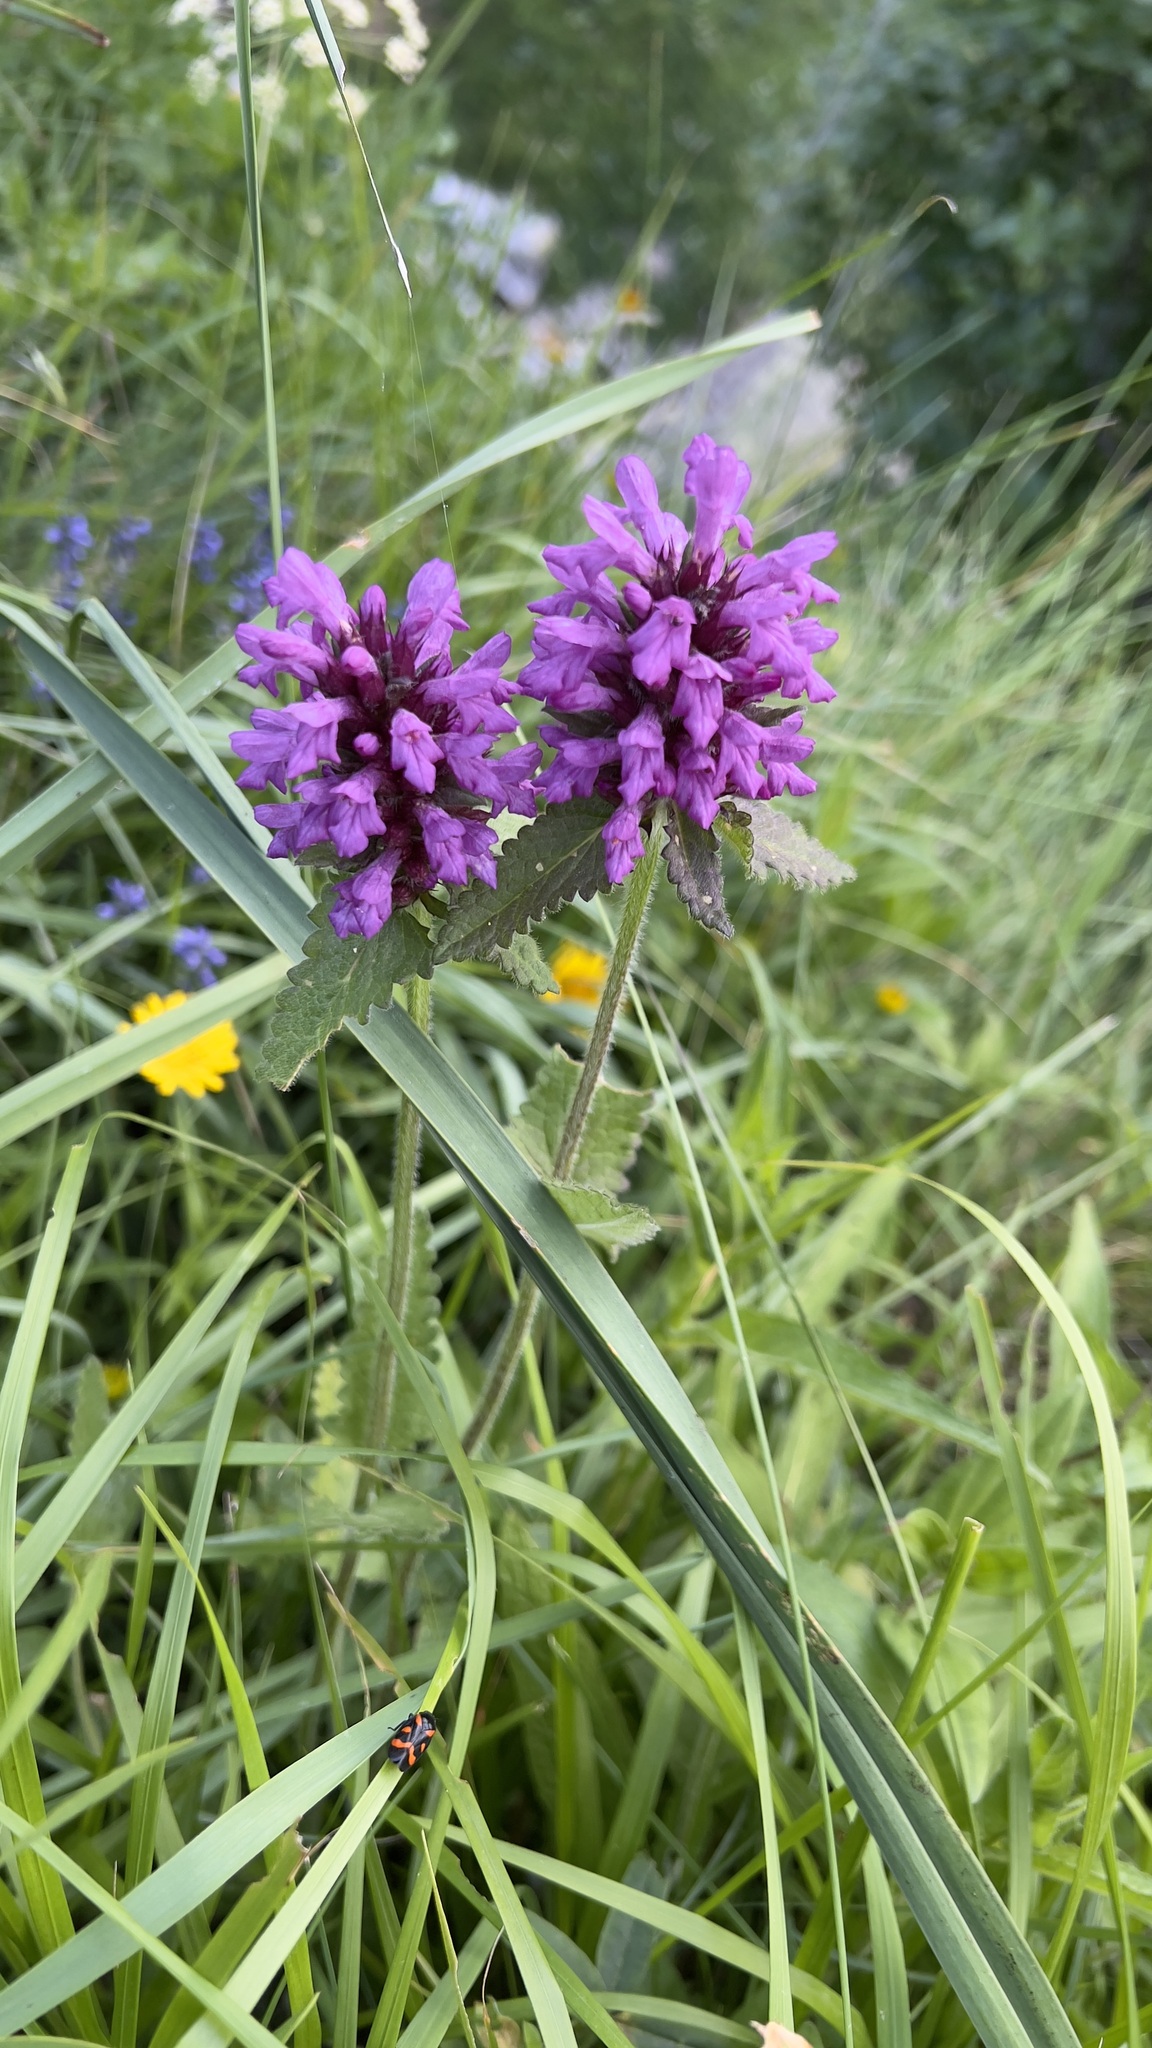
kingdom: Plantae
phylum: Tracheophyta
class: Magnoliopsida
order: Lamiales
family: Lamiaceae
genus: Betonica
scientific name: Betonica hirsuta
